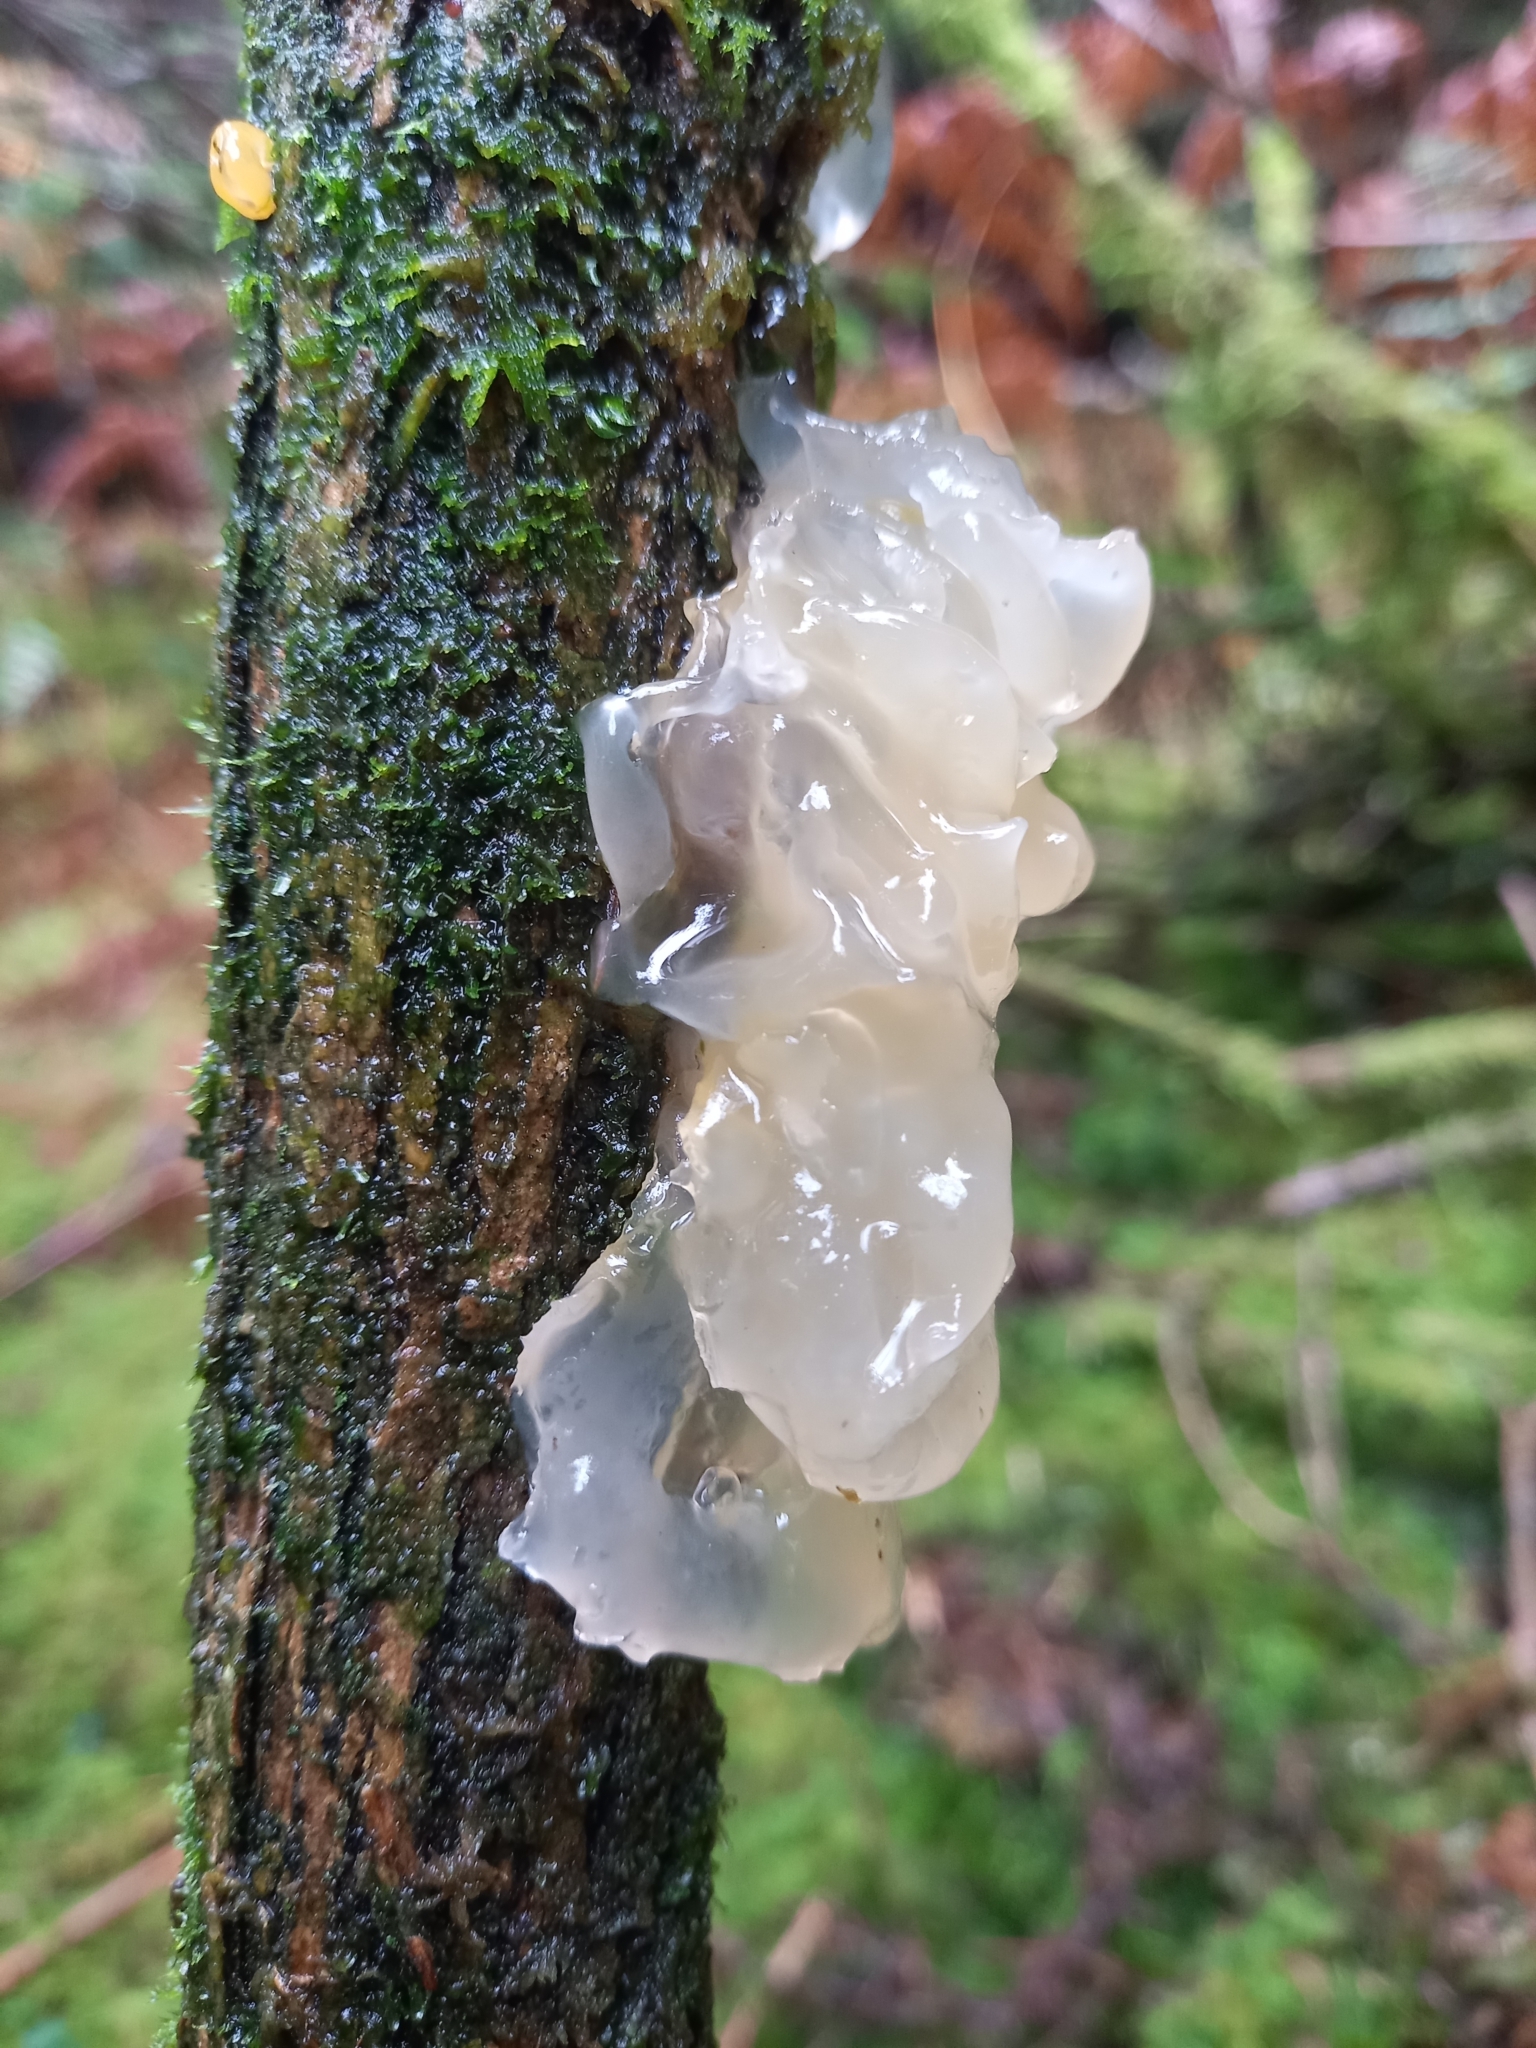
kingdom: Fungi
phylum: Basidiomycota
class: Agaricomycetes
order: Auriculariales
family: Hyaloriaceae
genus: Myxarium
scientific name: Myxarium nucleatum
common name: Crystal brain fungus
